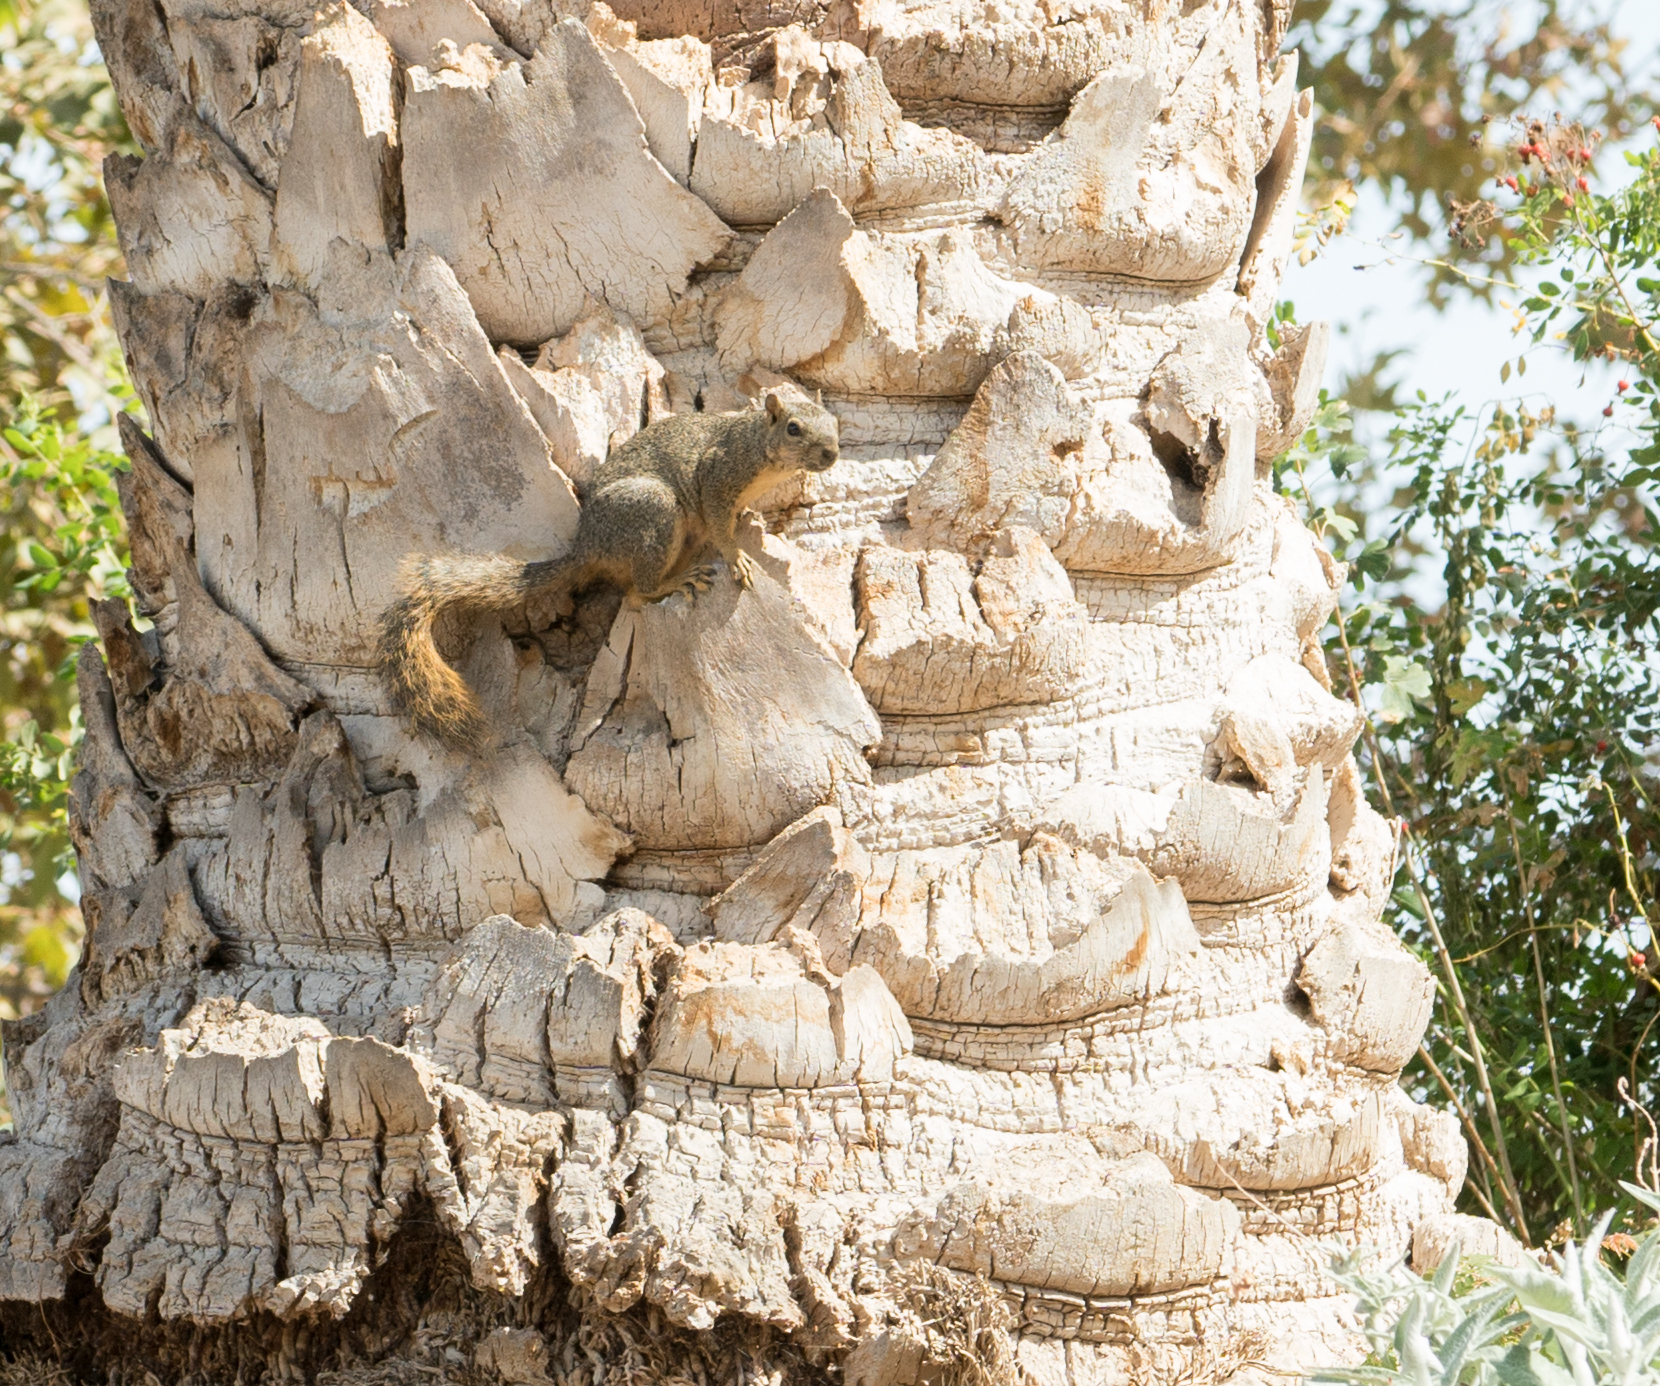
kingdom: Animalia
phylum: Chordata
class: Mammalia
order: Rodentia
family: Sciuridae
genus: Sciurus
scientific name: Sciurus niger
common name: Fox squirrel
